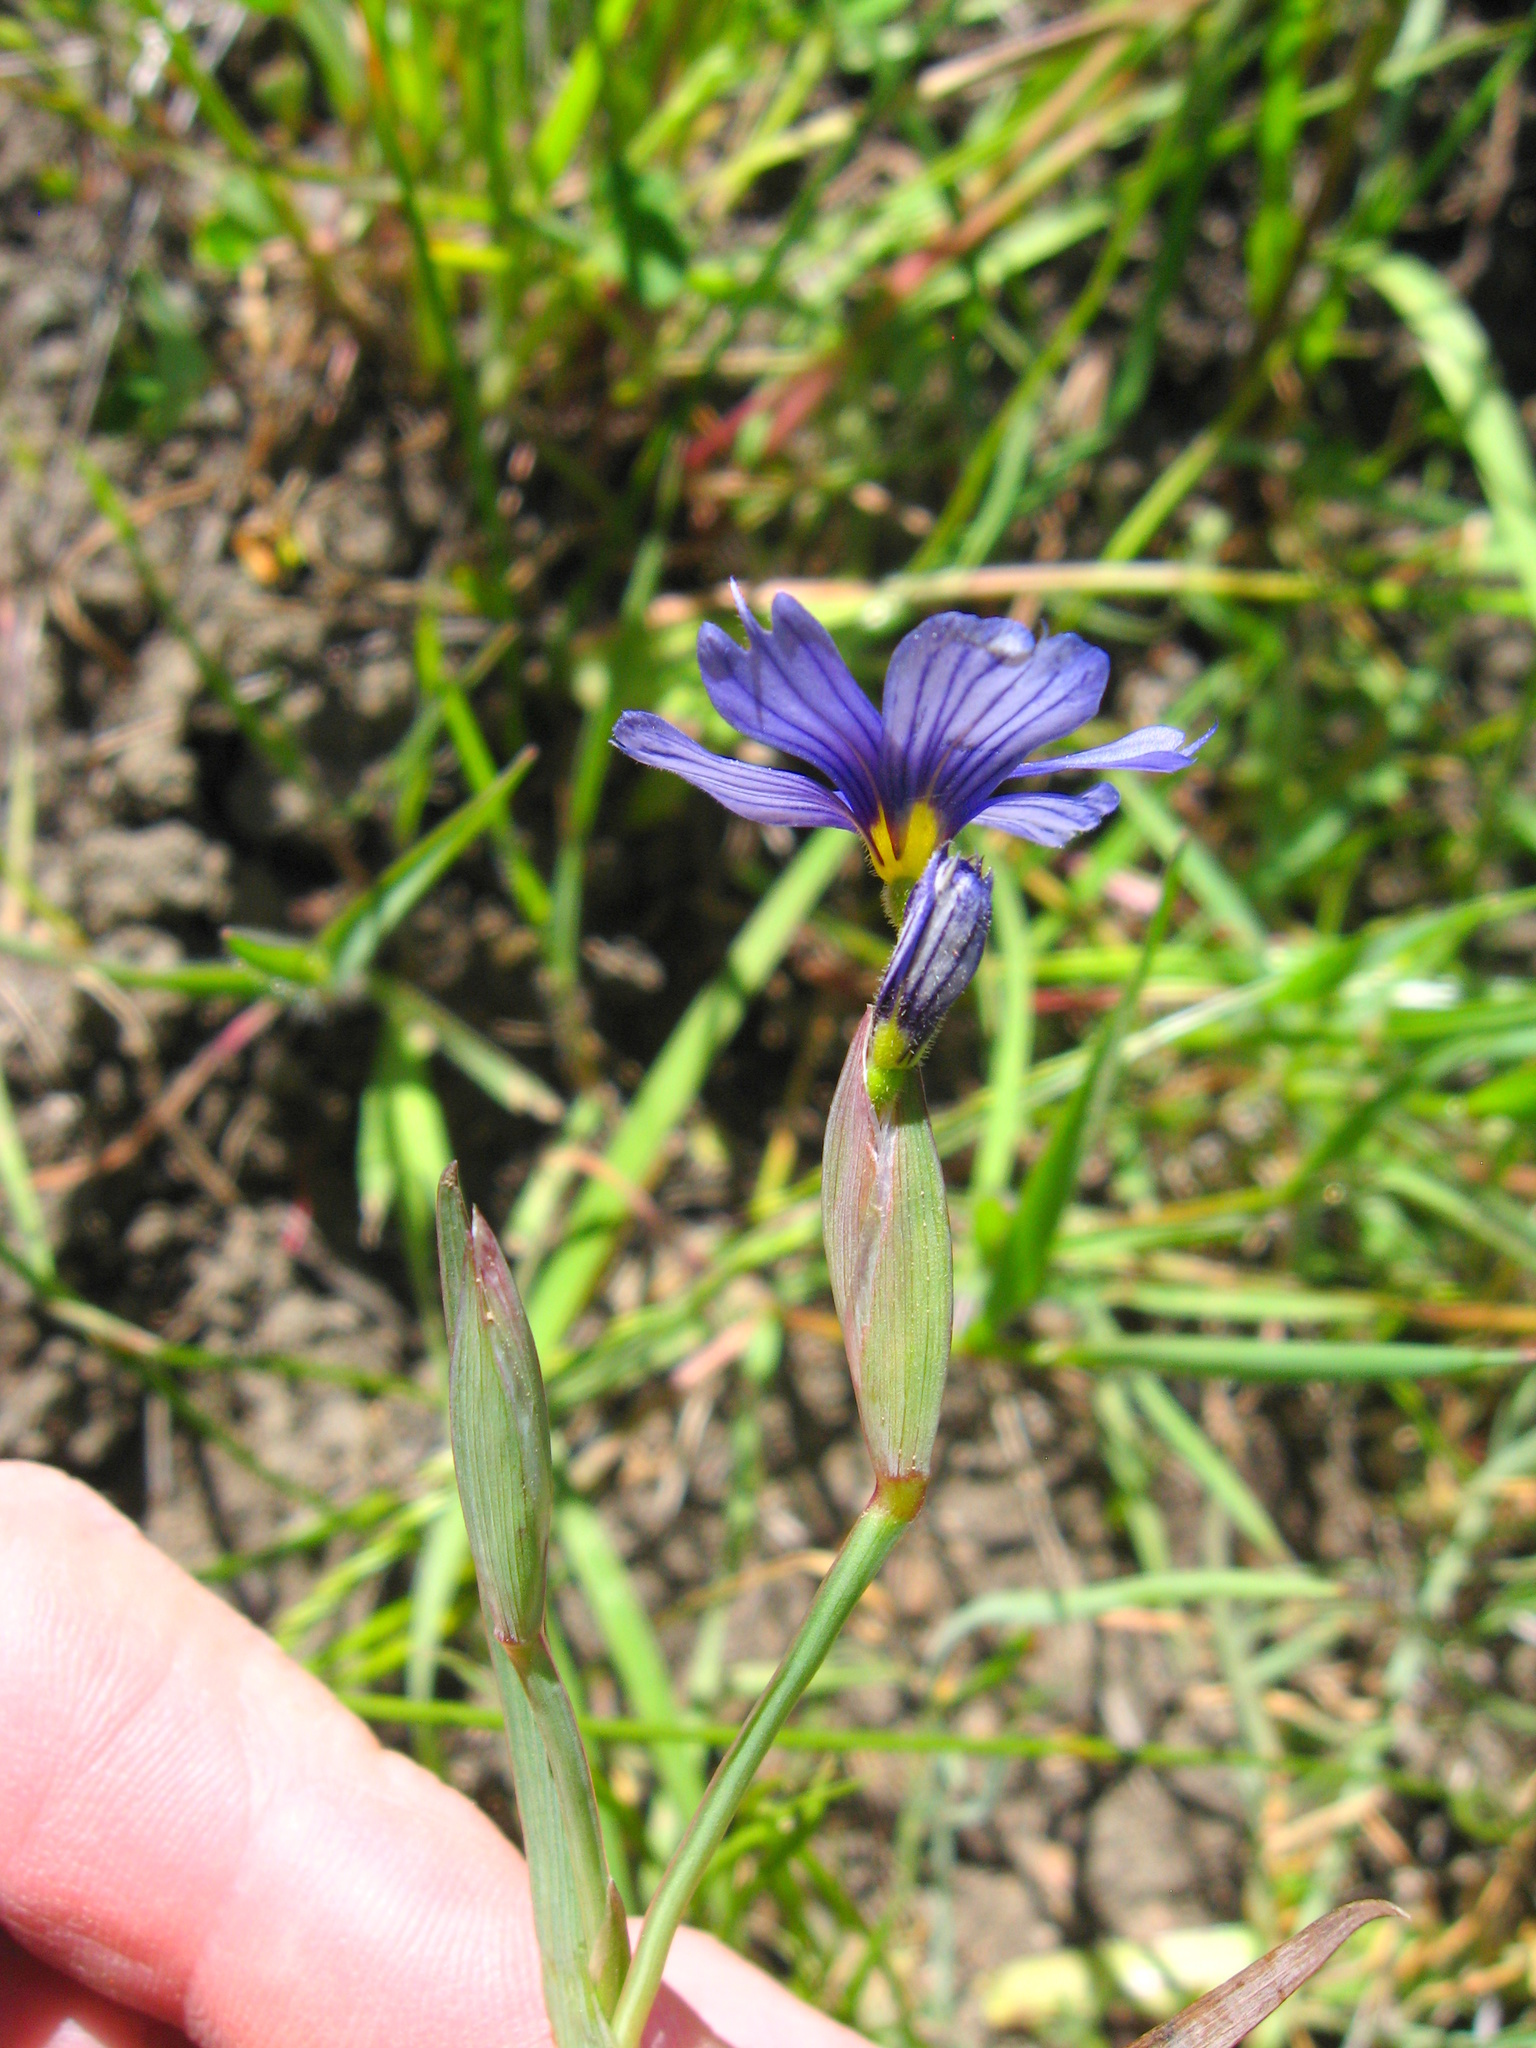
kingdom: Plantae
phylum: Tracheophyta
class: Liliopsida
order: Asparagales
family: Iridaceae
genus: Sisyrinchium
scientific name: Sisyrinchium bellum
